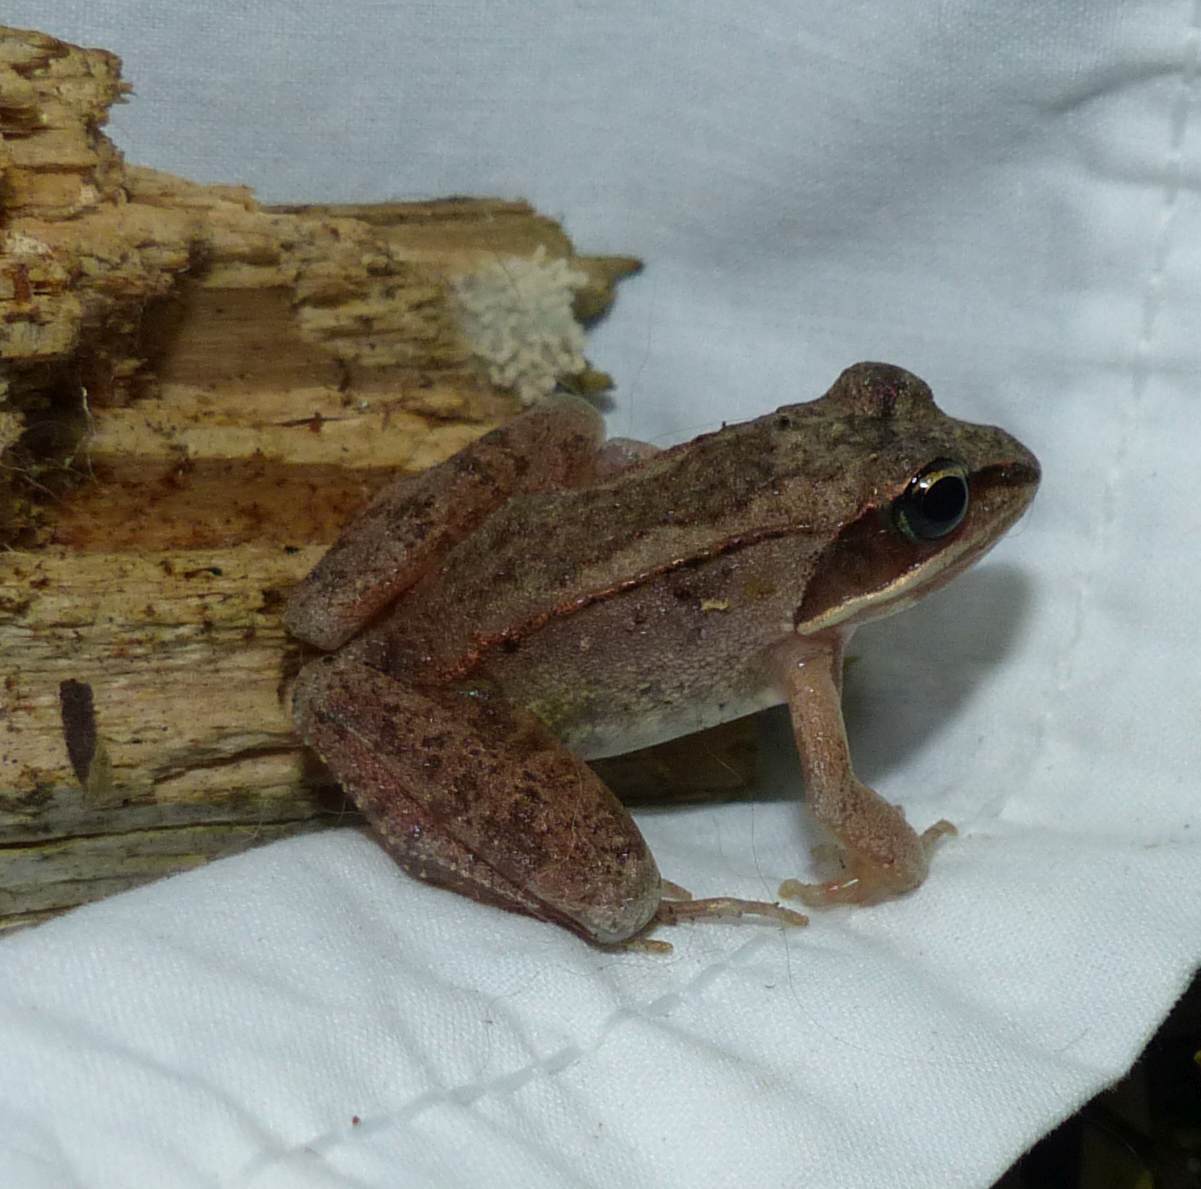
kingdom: Animalia
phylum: Chordata
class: Amphibia
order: Anura
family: Ranidae
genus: Lithobates
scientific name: Lithobates sylvaticus
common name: Wood frog
